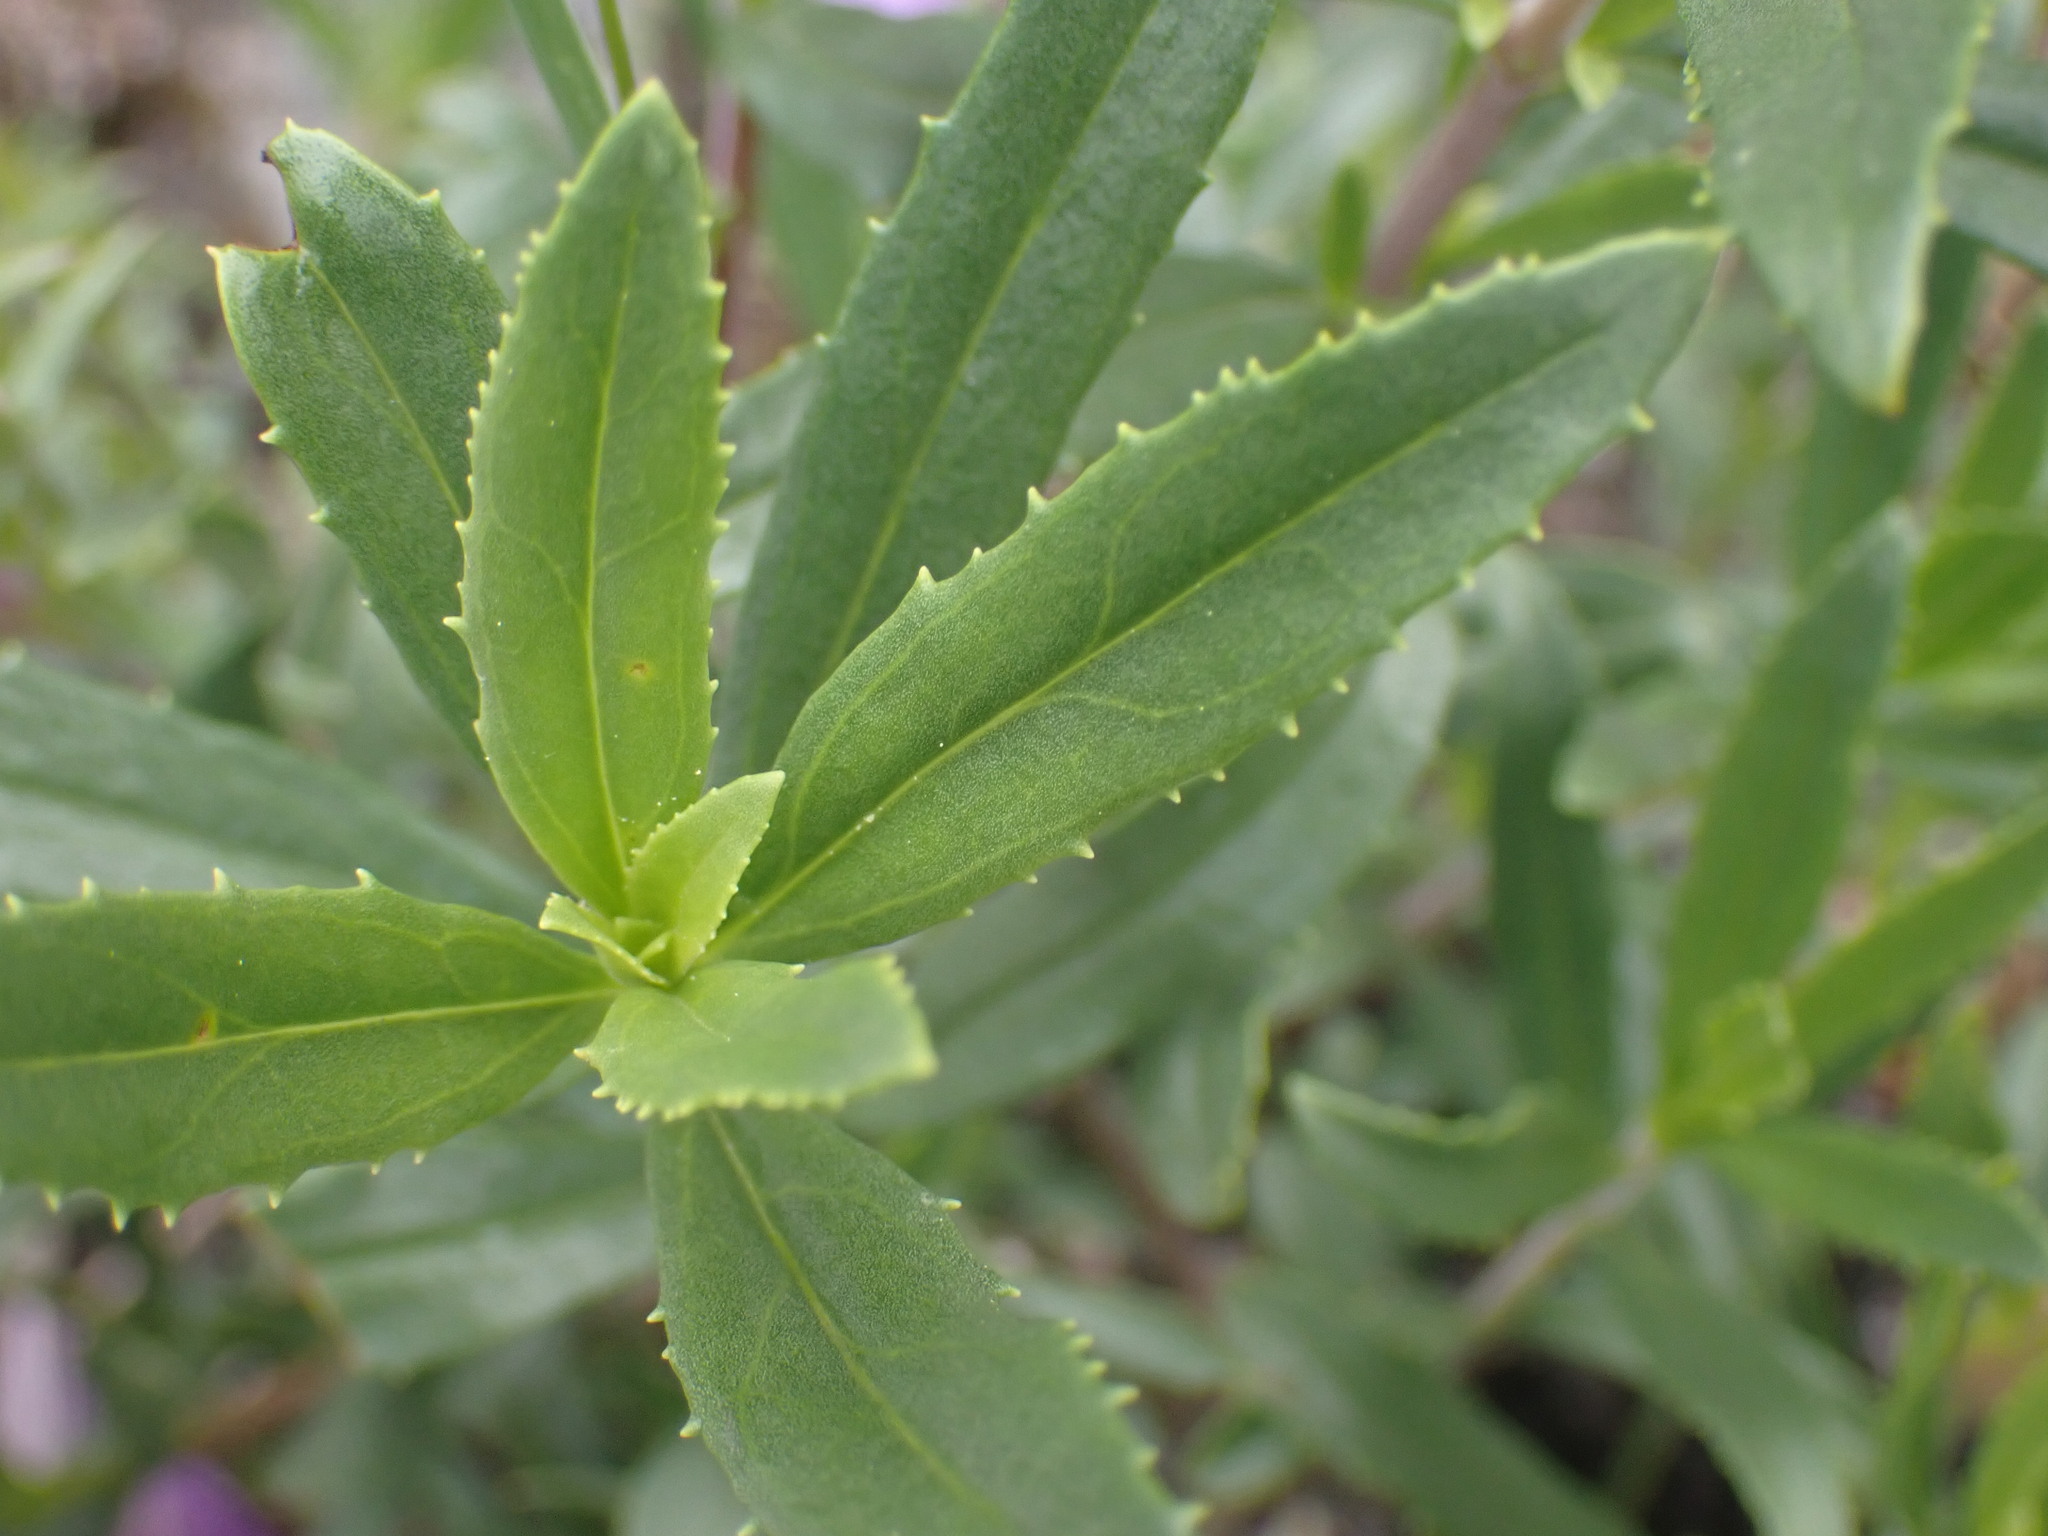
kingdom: Plantae
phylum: Tracheophyta
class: Magnoliopsida
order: Lamiales
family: Plantaginaceae
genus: Penstemon
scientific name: Penstemon fruticosus
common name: Bush penstemon
